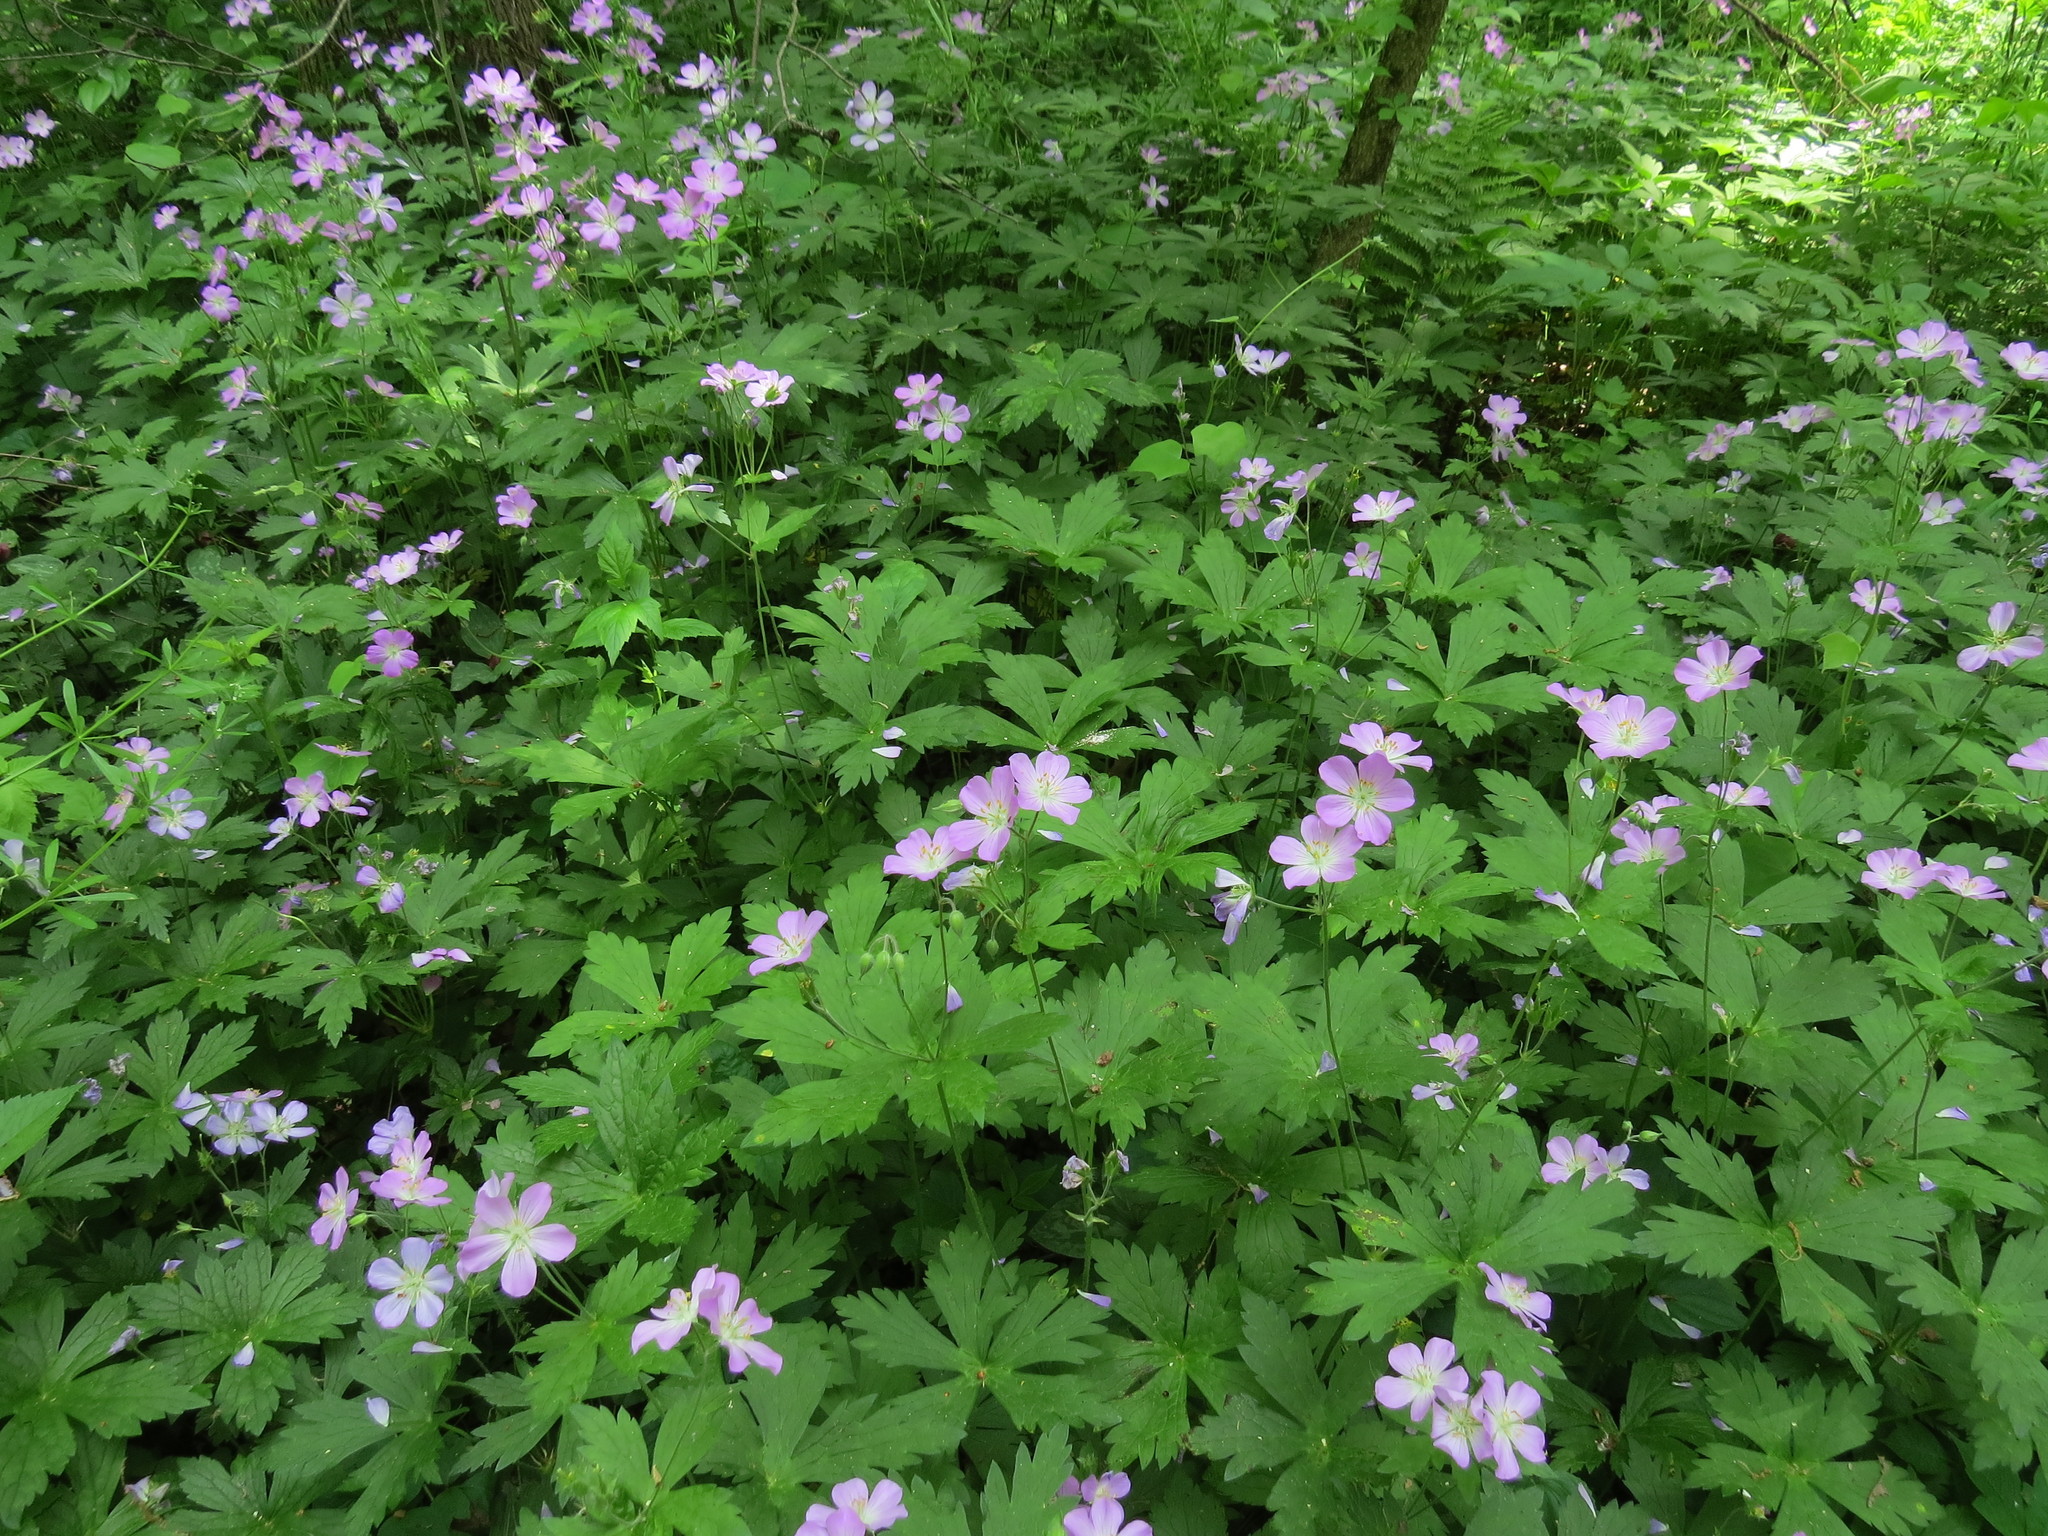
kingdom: Plantae
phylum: Tracheophyta
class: Magnoliopsida
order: Geraniales
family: Geraniaceae
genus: Geranium
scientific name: Geranium maculatum
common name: Spotted geranium
